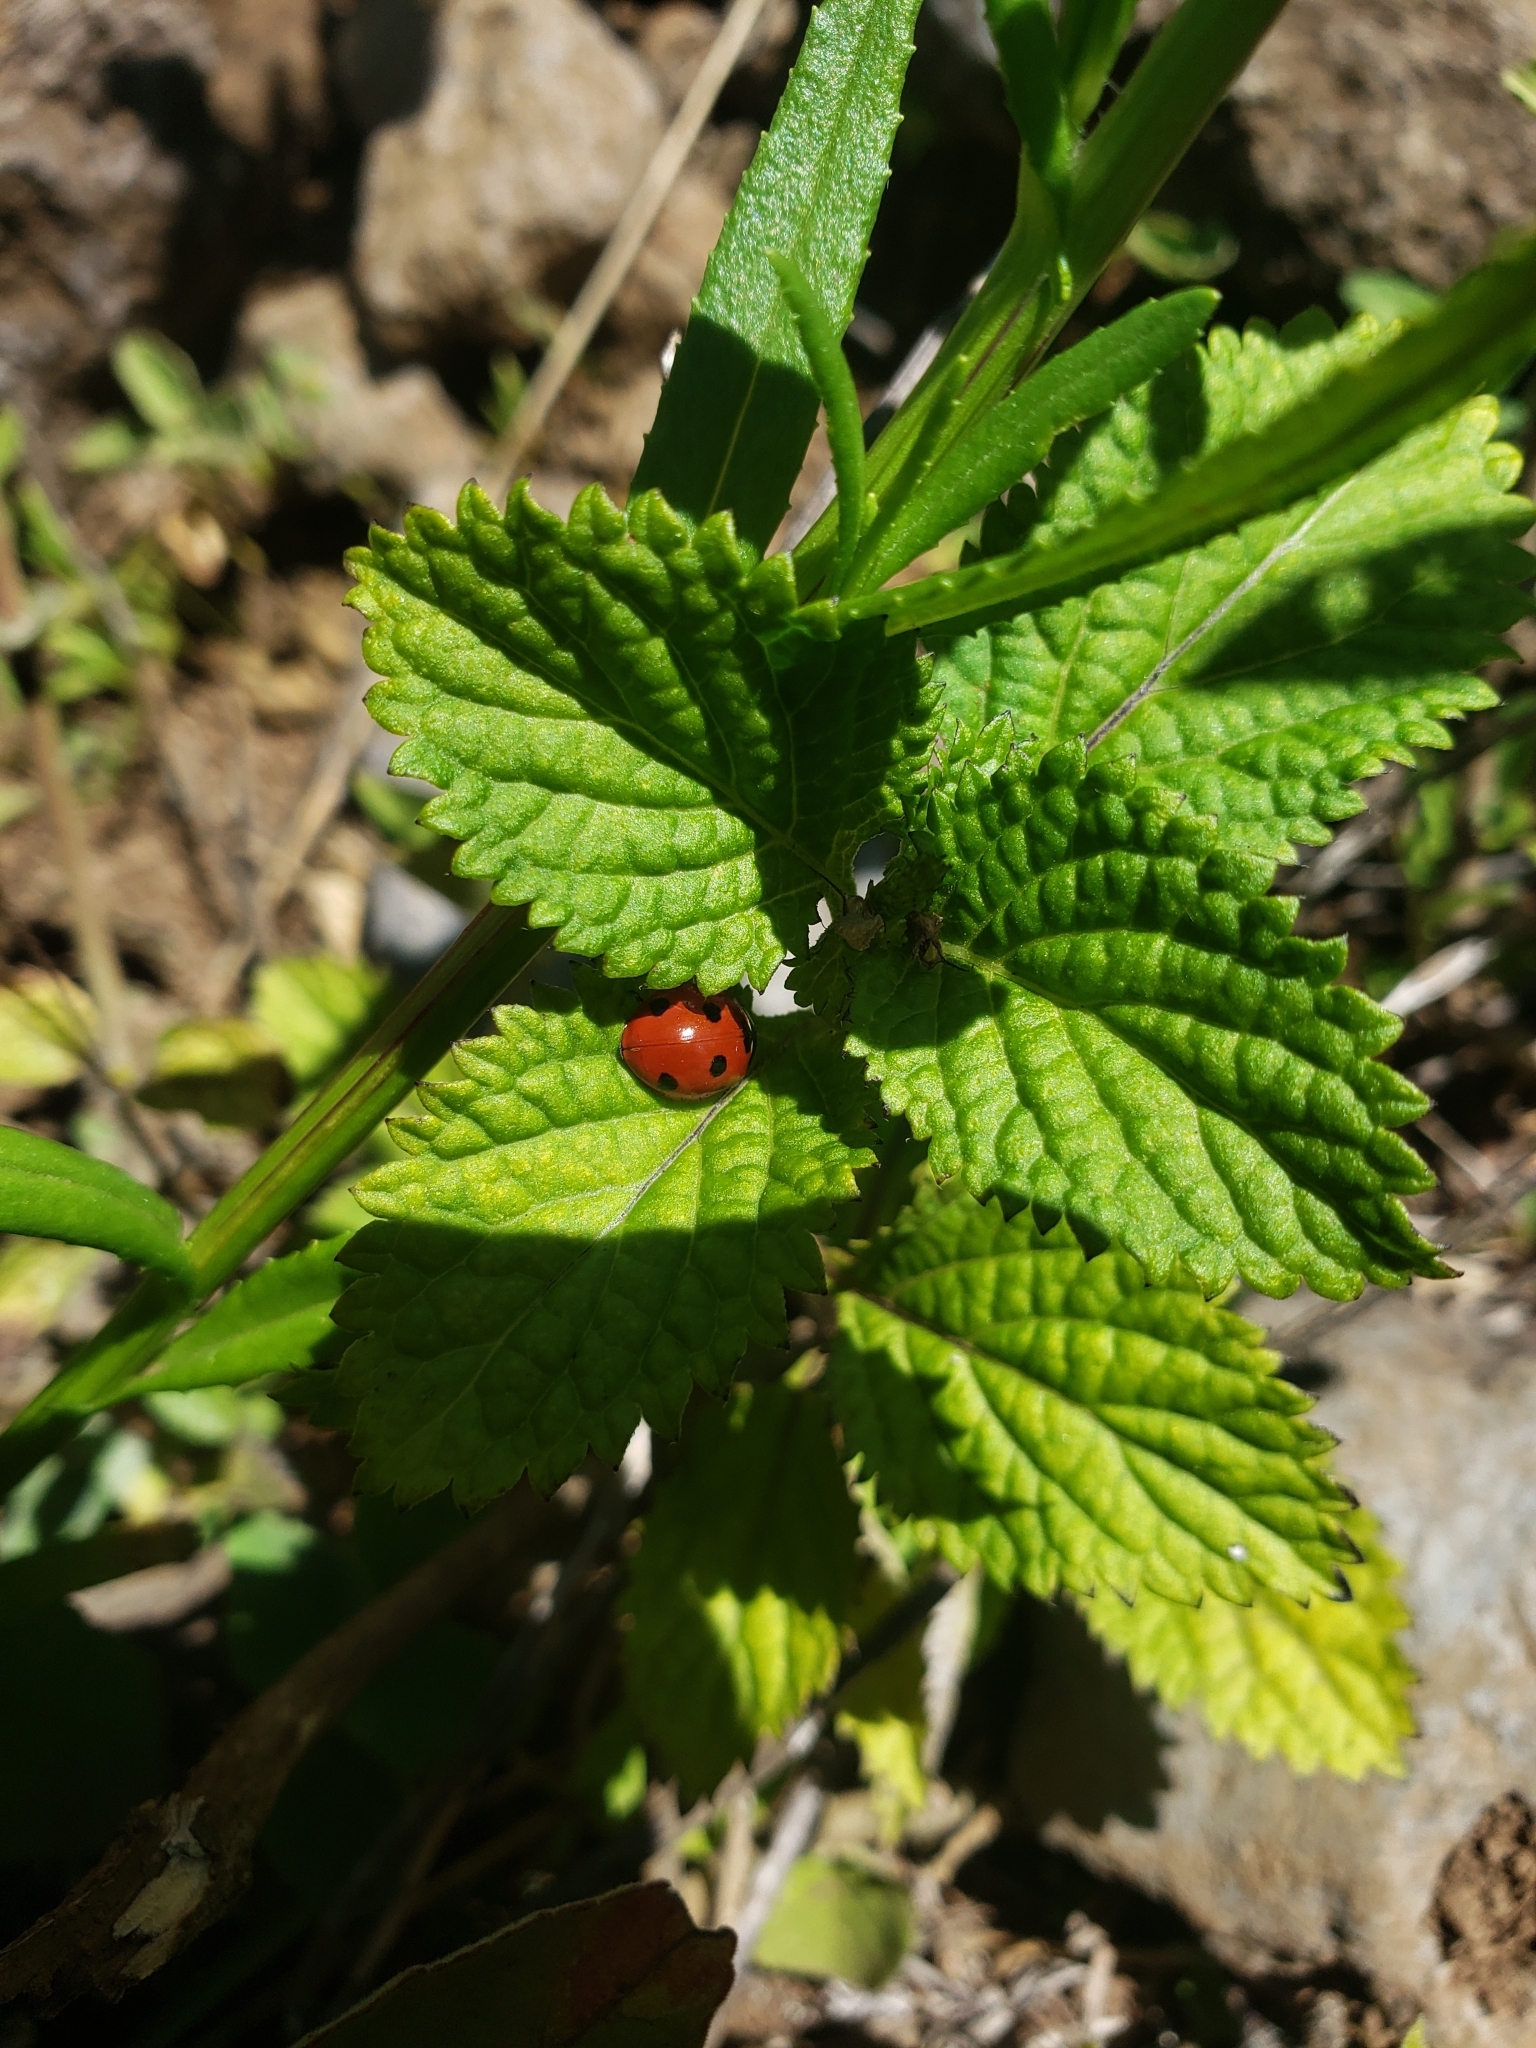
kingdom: Animalia
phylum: Arthropoda
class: Insecta
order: Coleoptera
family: Coccinellidae
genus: Coccinella
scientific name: Coccinella septempunctata
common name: Sevenspotted lady beetle
